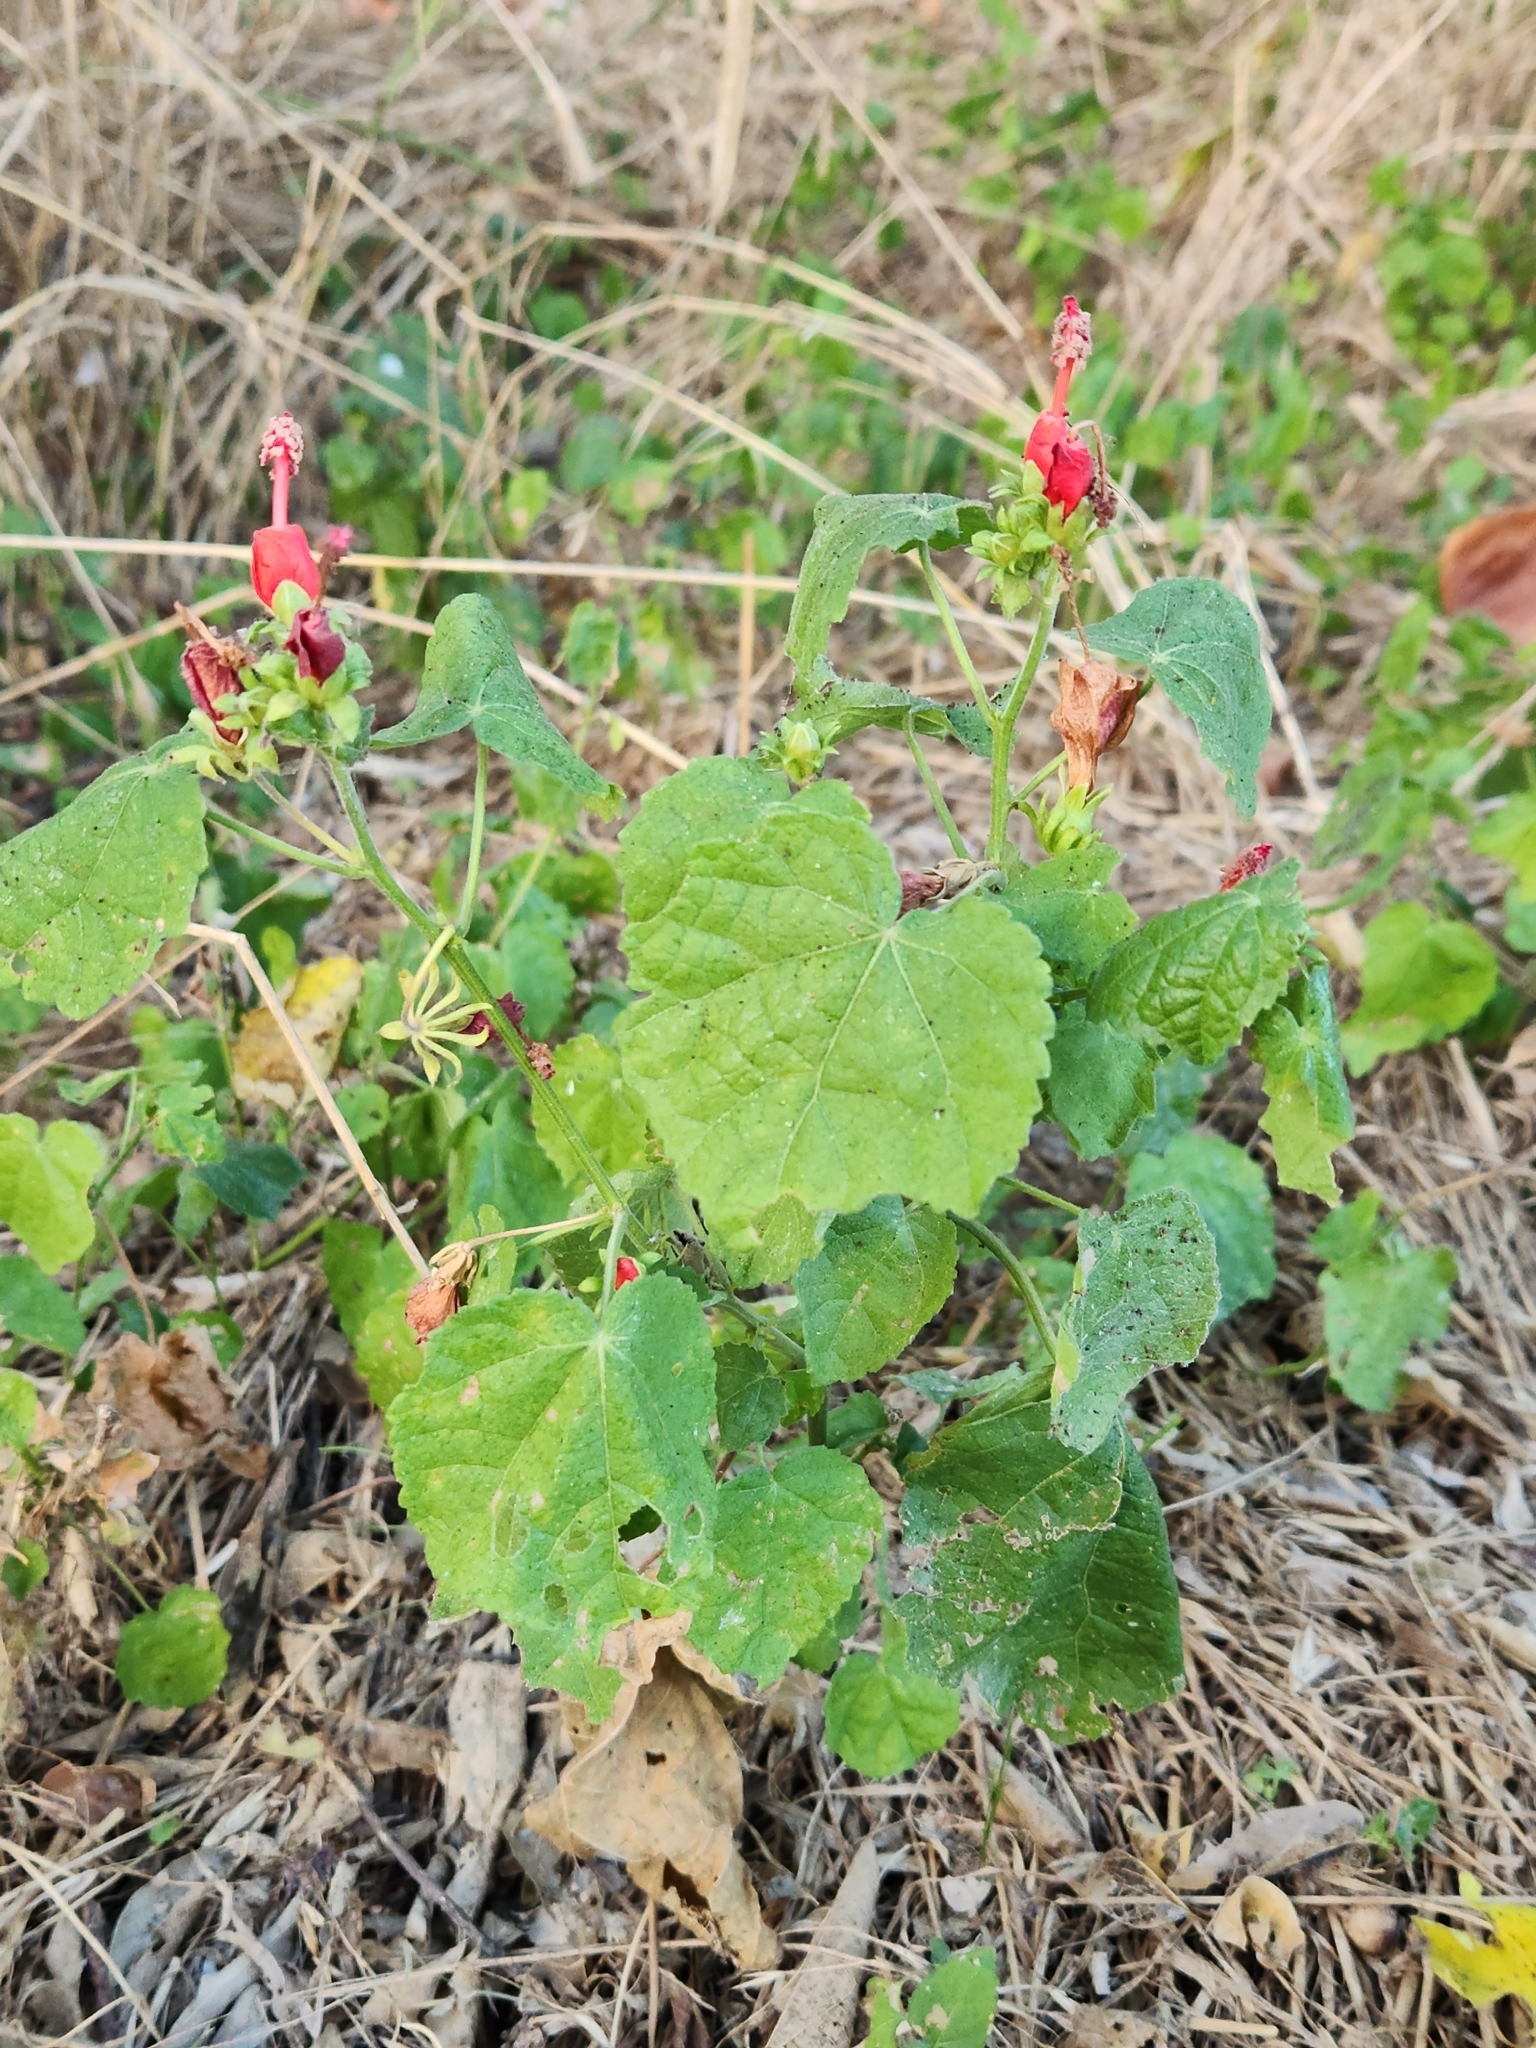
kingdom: Plantae
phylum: Tracheophyta
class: Magnoliopsida
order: Malvales
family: Malvaceae
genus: Malvaviscus
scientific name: Malvaviscus arboreus
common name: Wax mallow
